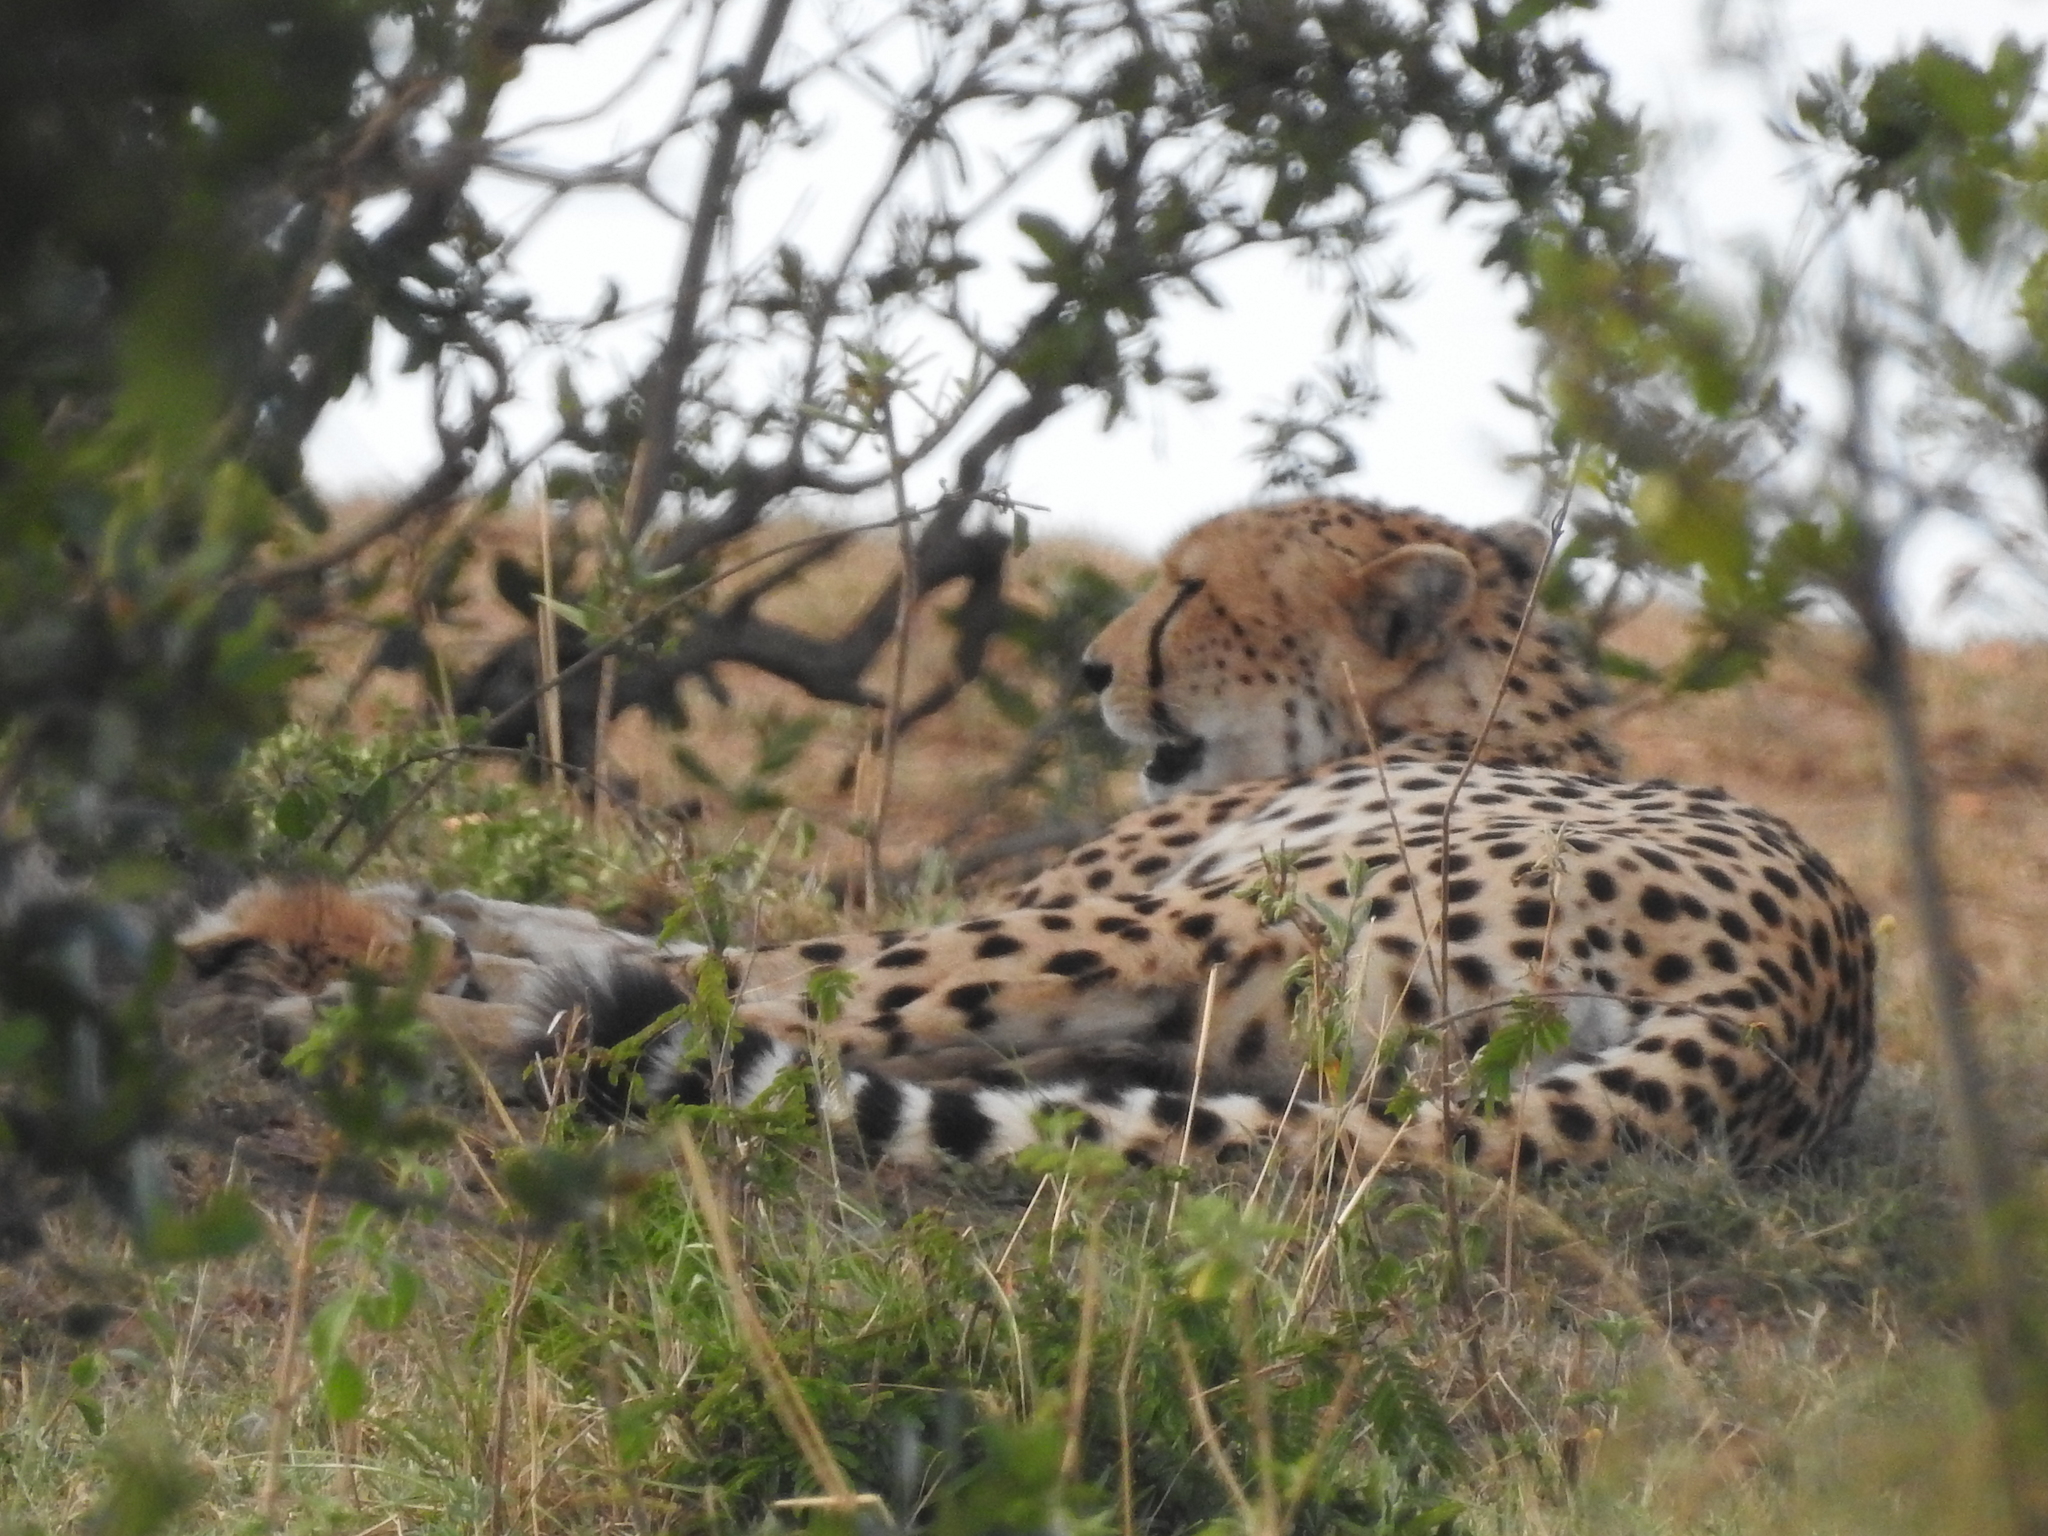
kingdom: Animalia
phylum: Chordata
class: Mammalia
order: Carnivora
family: Felidae
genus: Acinonyx
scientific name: Acinonyx jubatus
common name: Cheetah
